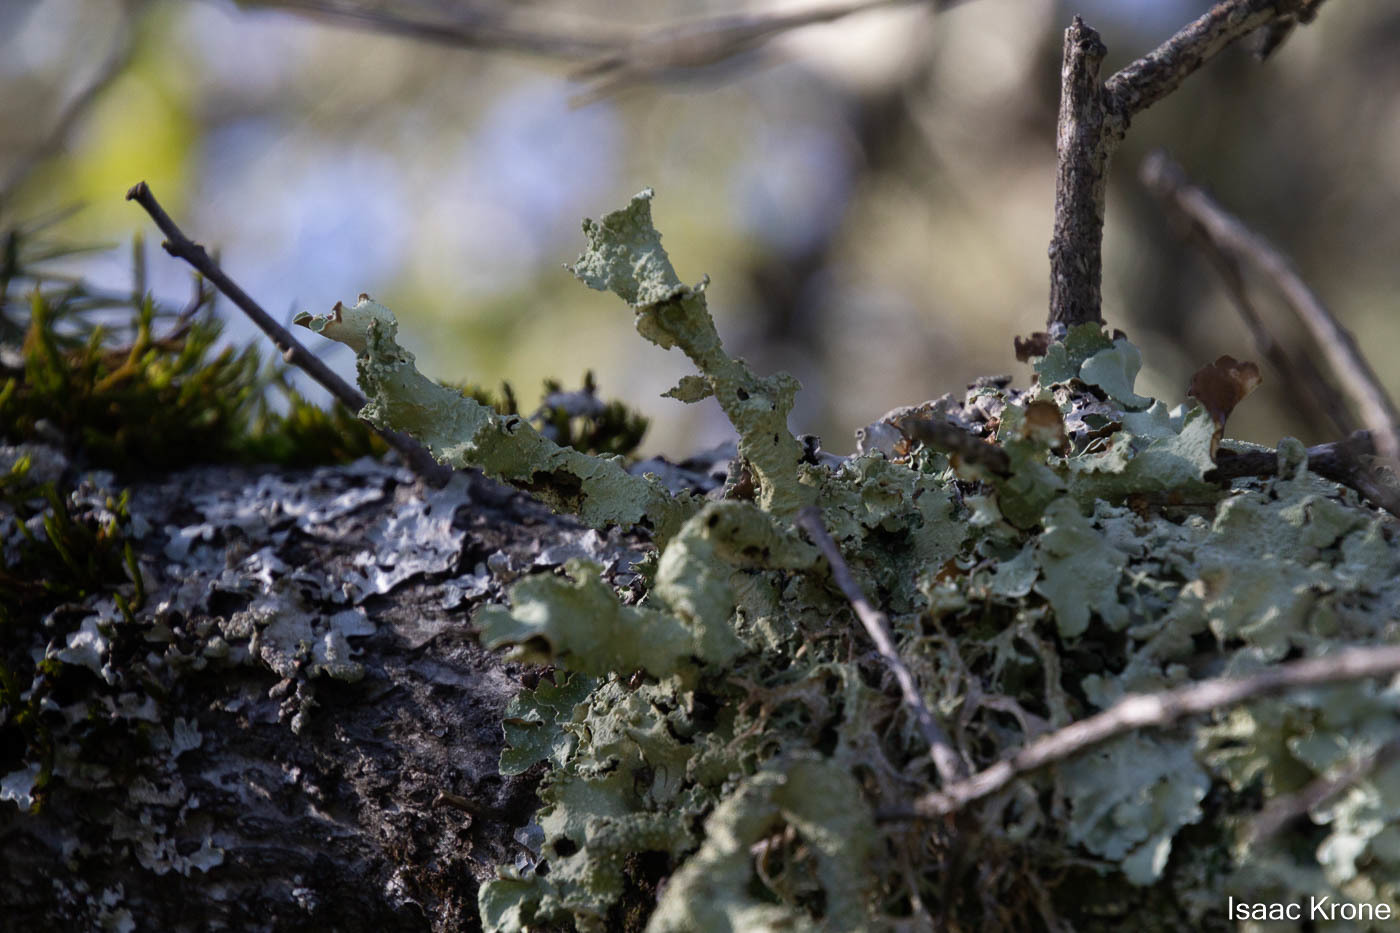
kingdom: Fungi
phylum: Ascomycota
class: Lecanoromycetes
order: Lecanorales
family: Parmeliaceae
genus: Flavopunctelia
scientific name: Flavopunctelia flaventior
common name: Speckled greenshield
